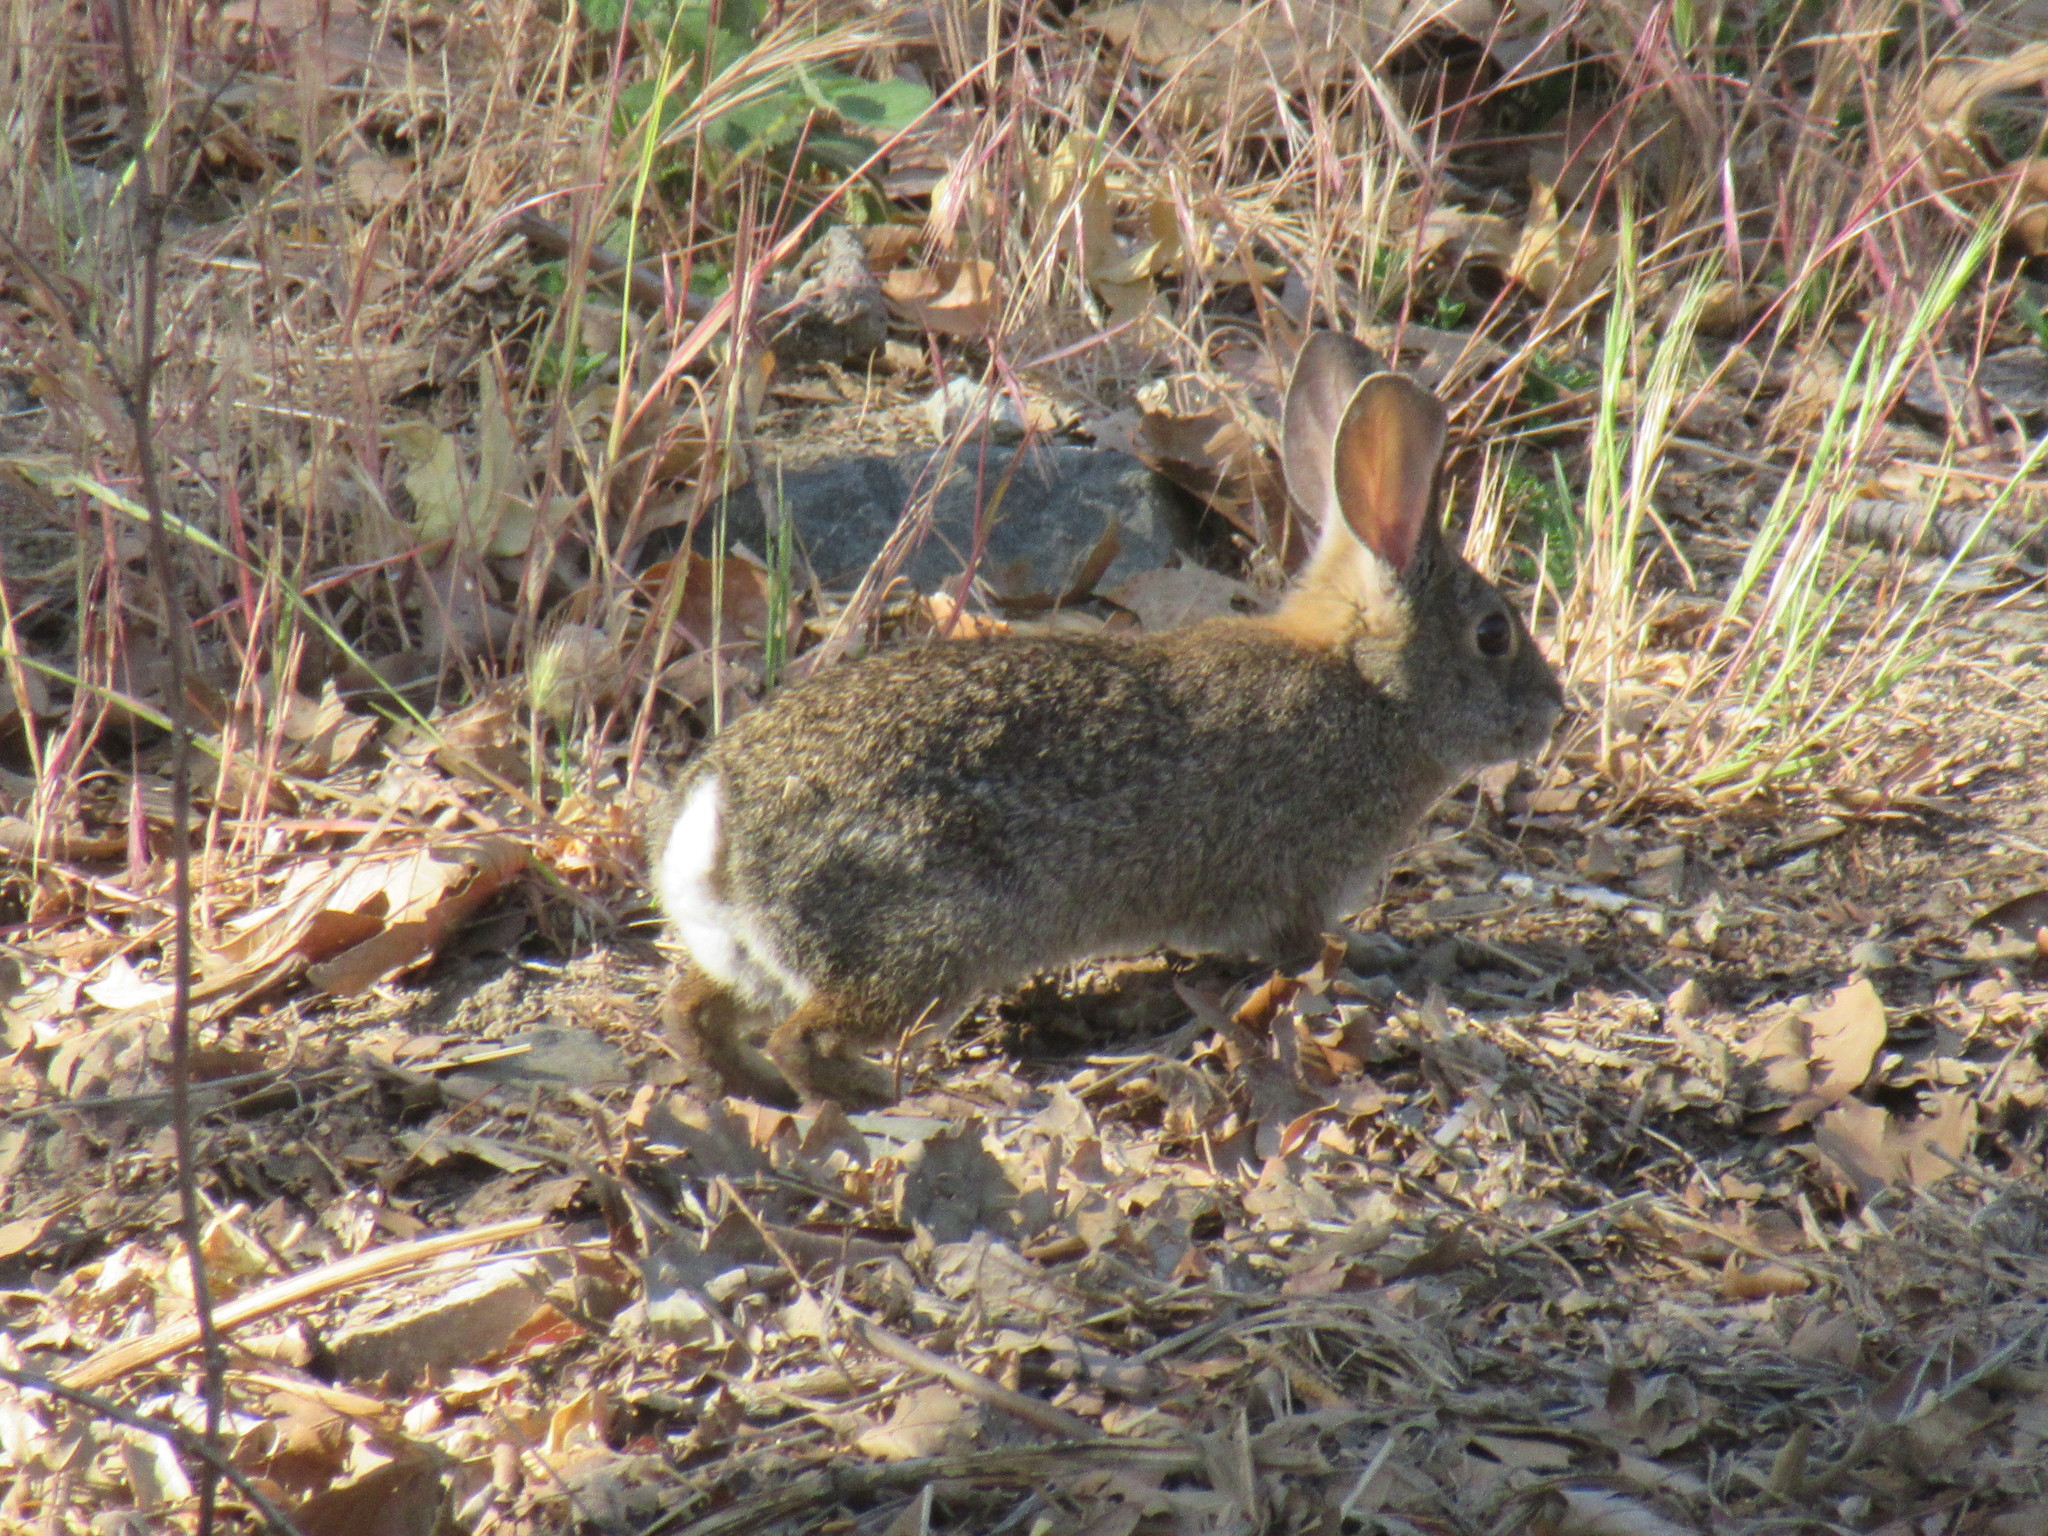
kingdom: Animalia
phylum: Chordata
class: Mammalia
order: Lagomorpha
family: Leporidae
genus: Sylvilagus
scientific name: Sylvilagus bachmani
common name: Brush rabbit
